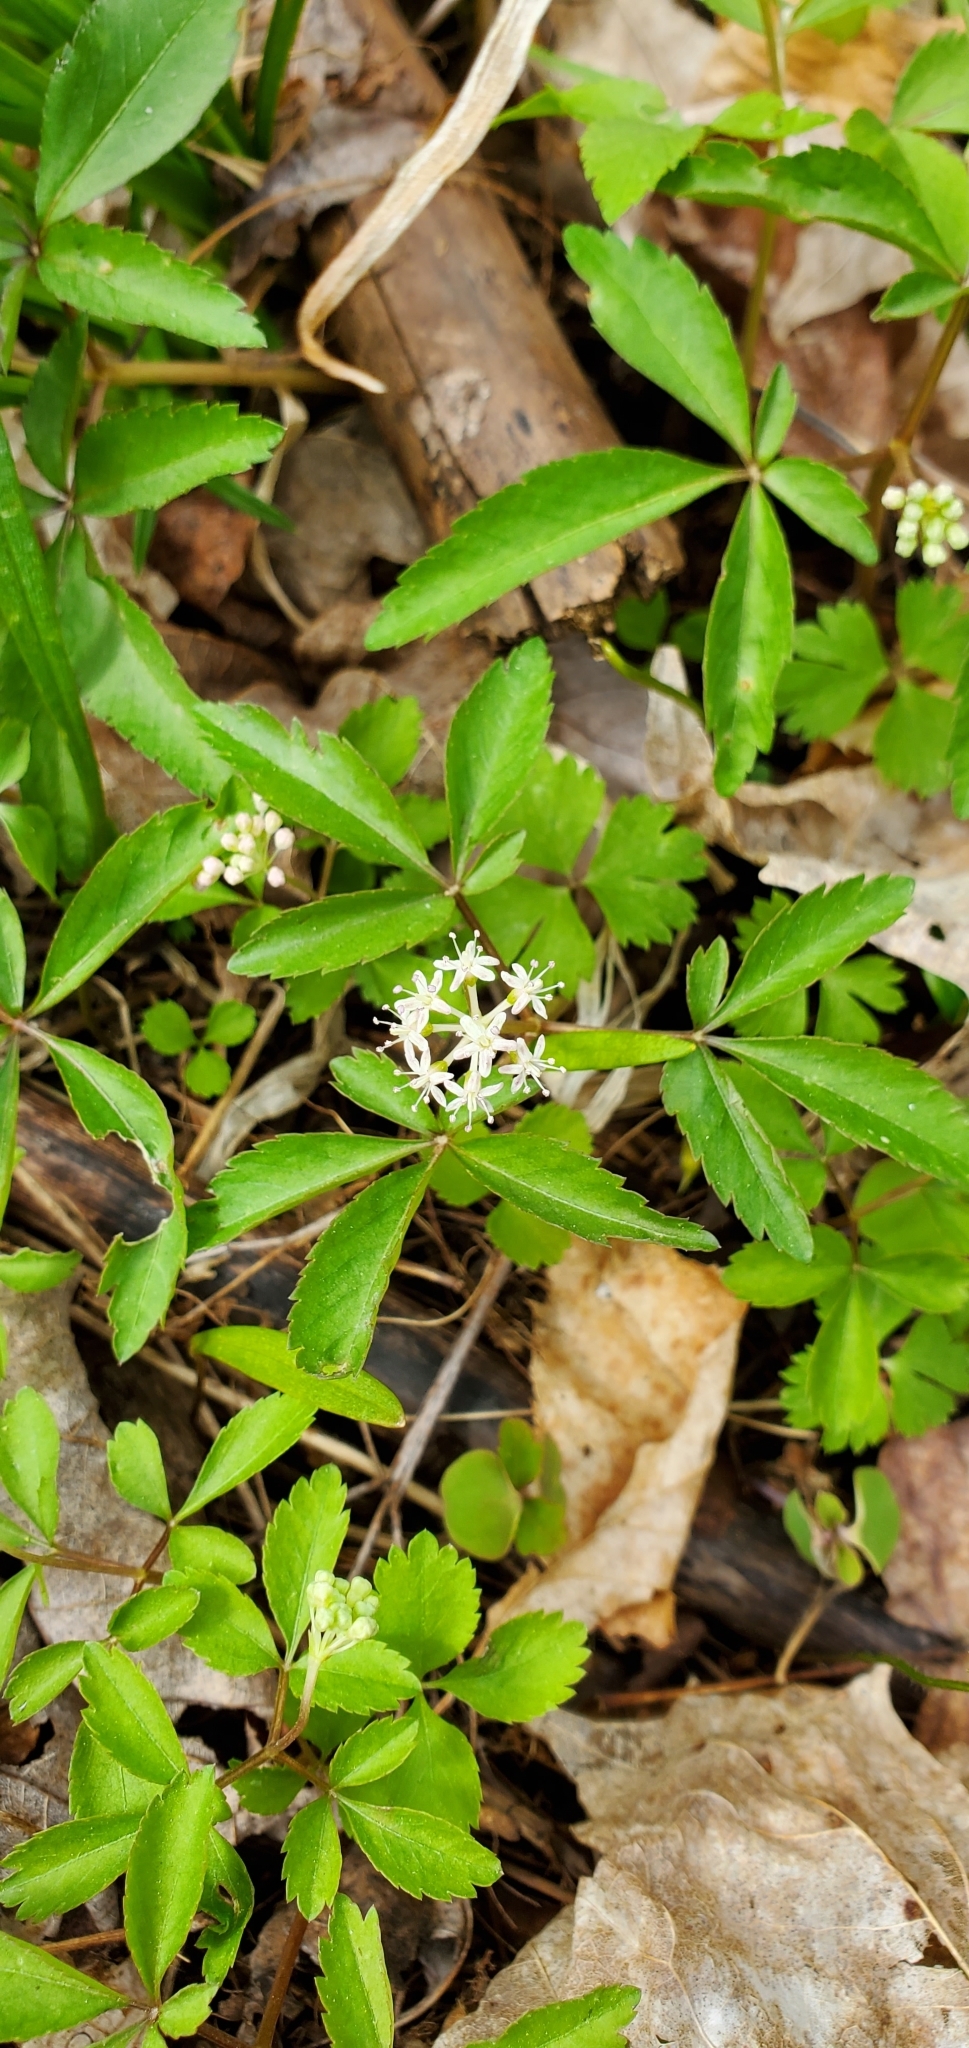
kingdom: Plantae
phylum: Tracheophyta
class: Magnoliopsida
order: Apiales
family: Araliaceae
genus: Panax
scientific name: Panax trifolius
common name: Dwarf ginseng
